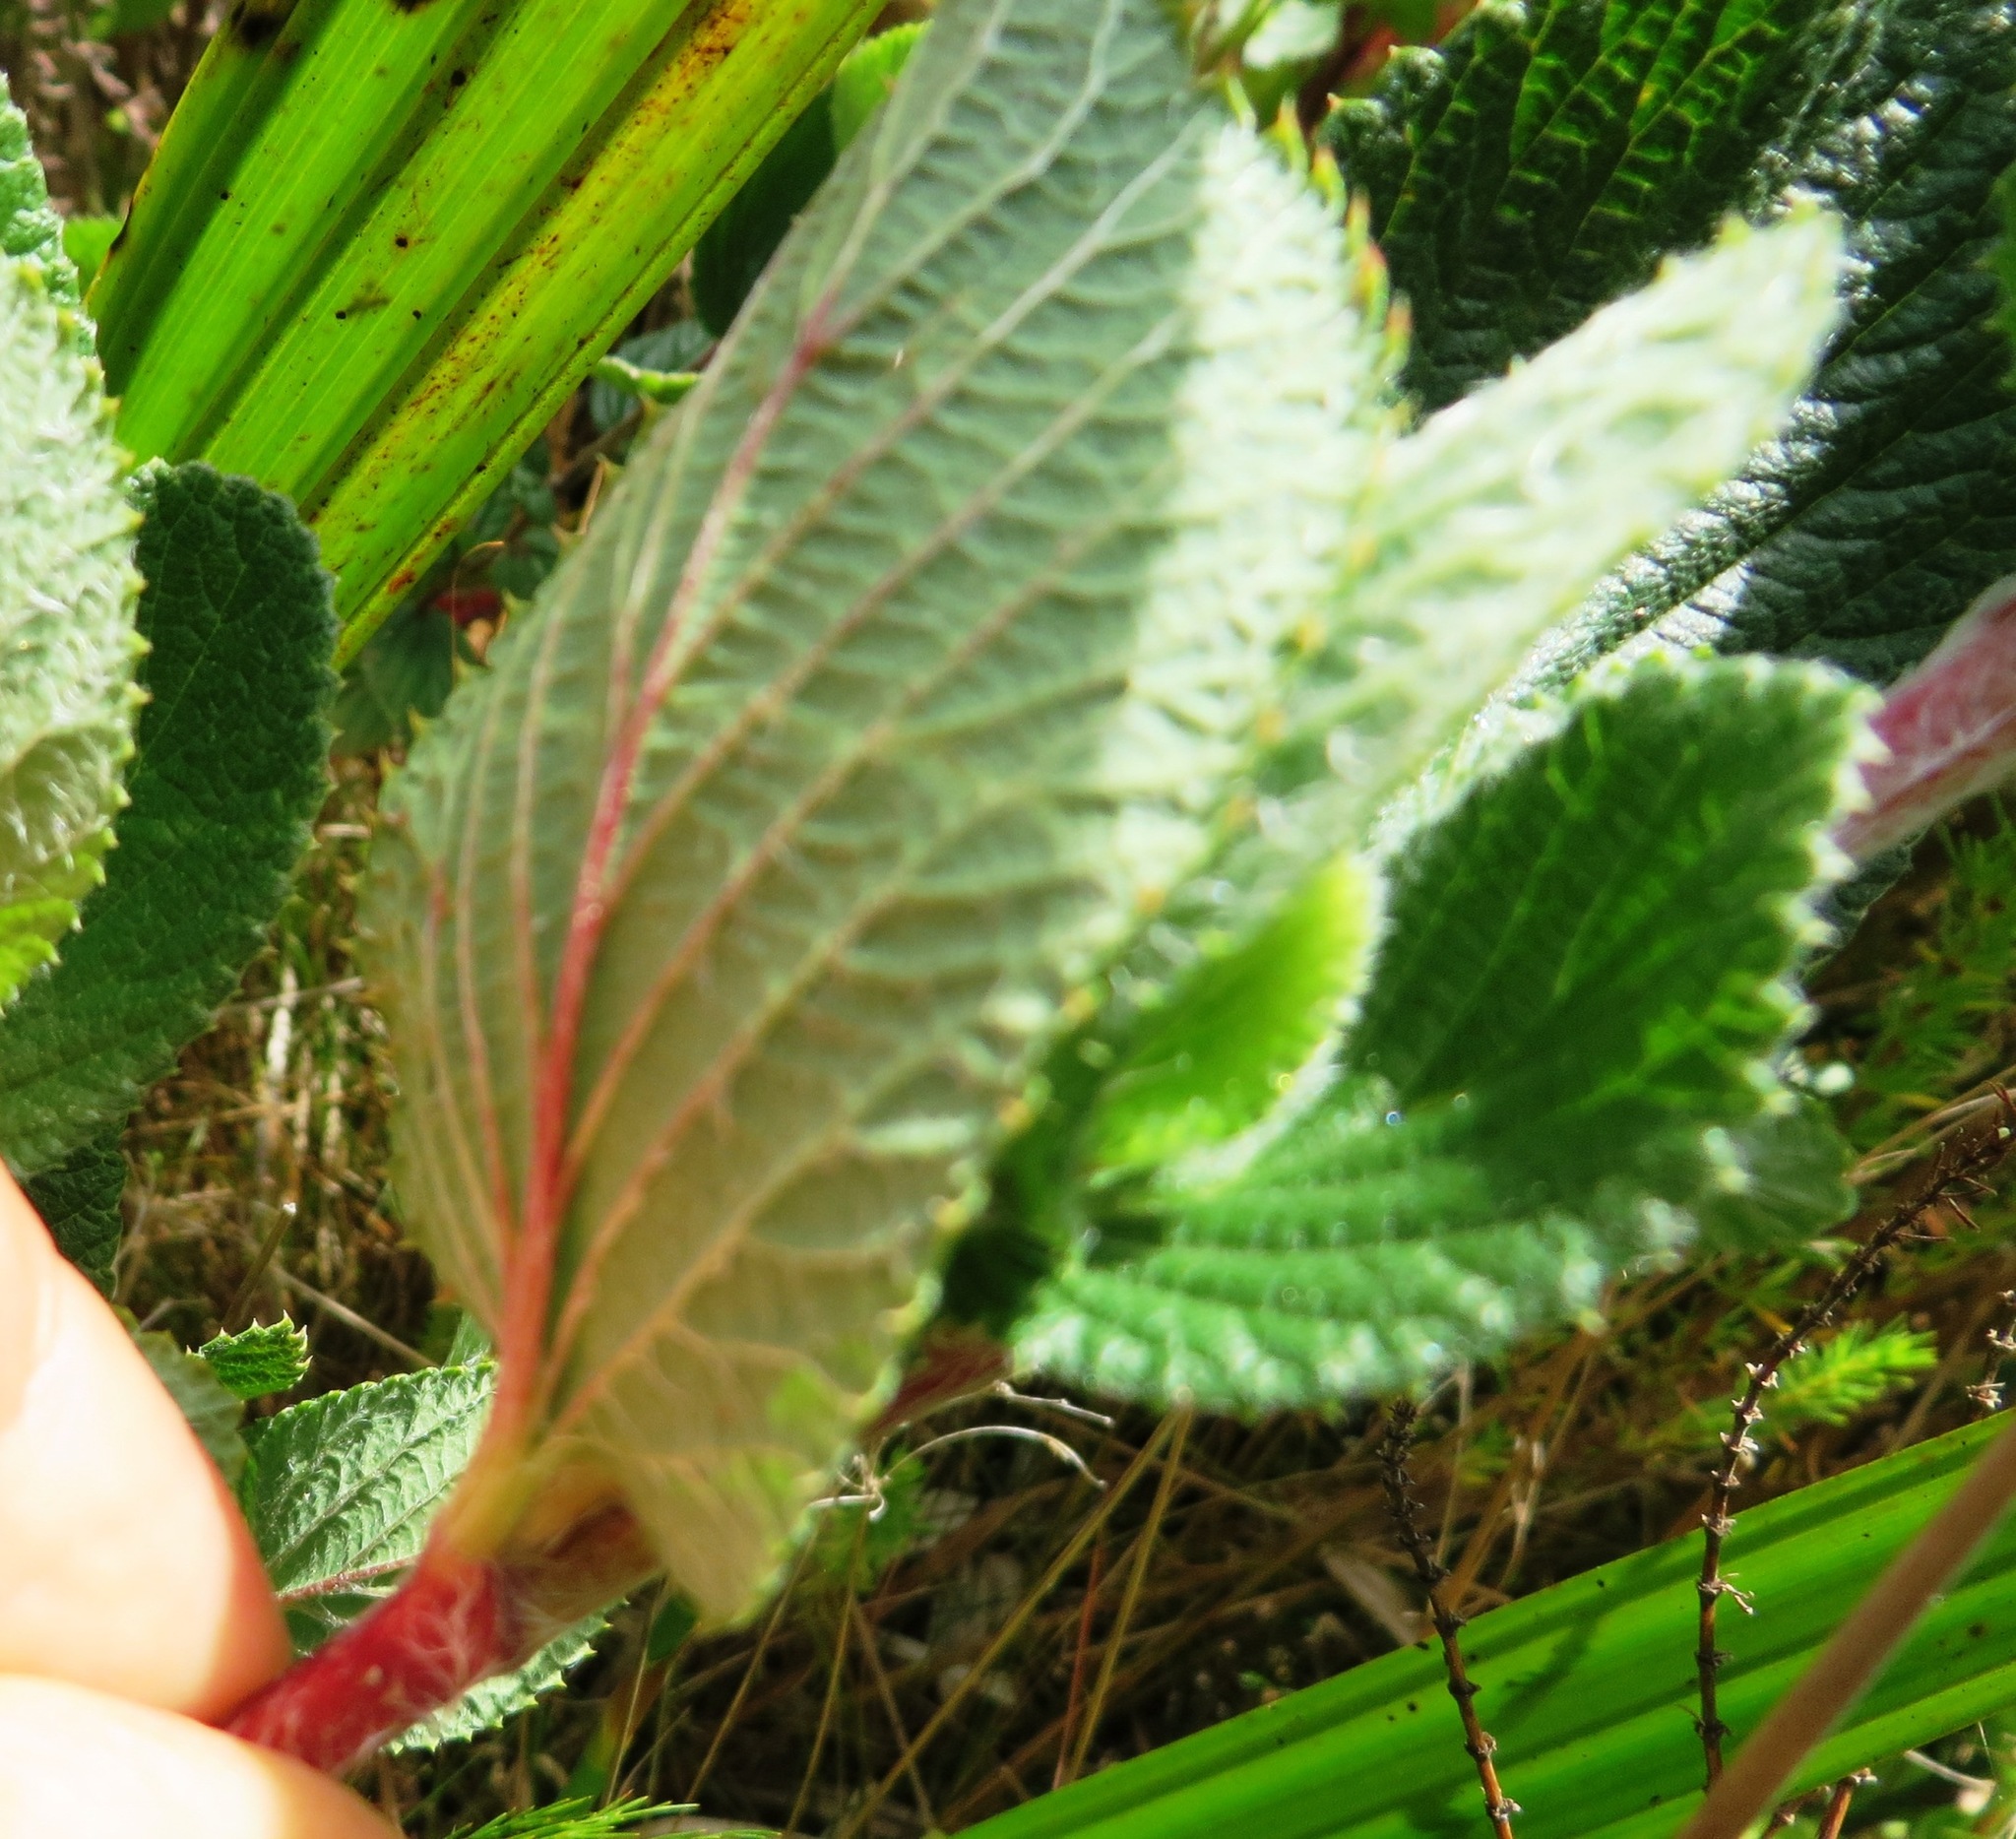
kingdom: Plantae
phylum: Tracheophyta
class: Magnoliopsida
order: Rosales
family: Rosaceae
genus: Cliffortia
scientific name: Cliffortia odorata
